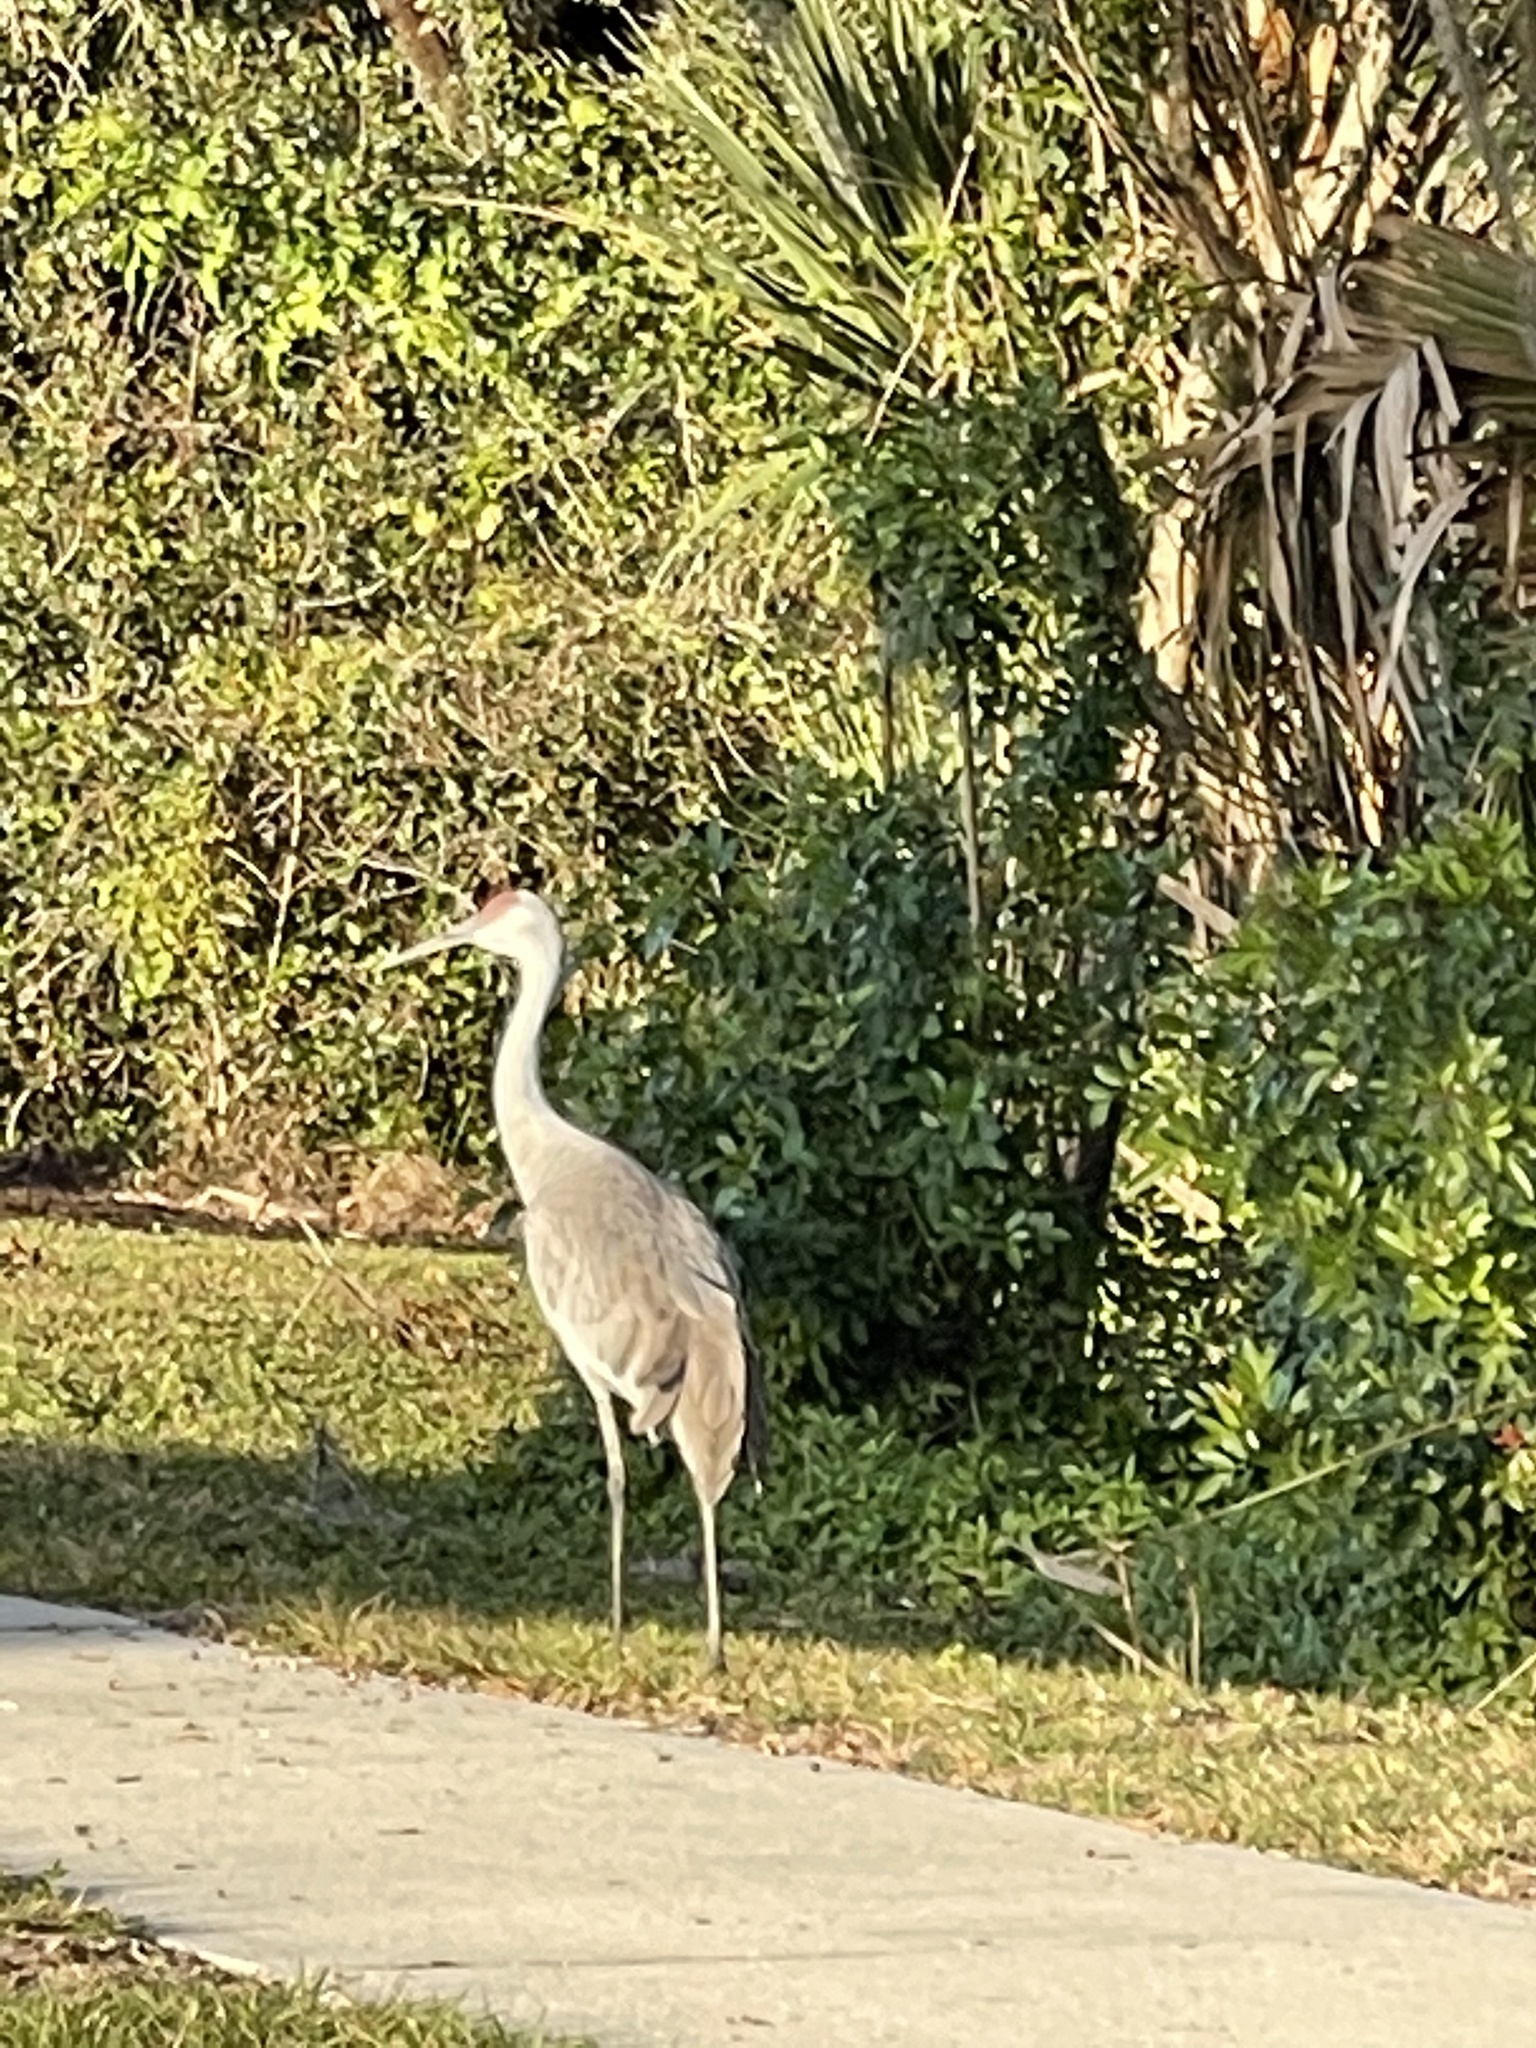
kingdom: Animalia
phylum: Chordata
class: Aves
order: Gruiformes
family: Gruidae
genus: Grus
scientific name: Grus canadensis
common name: Sandhill crane
